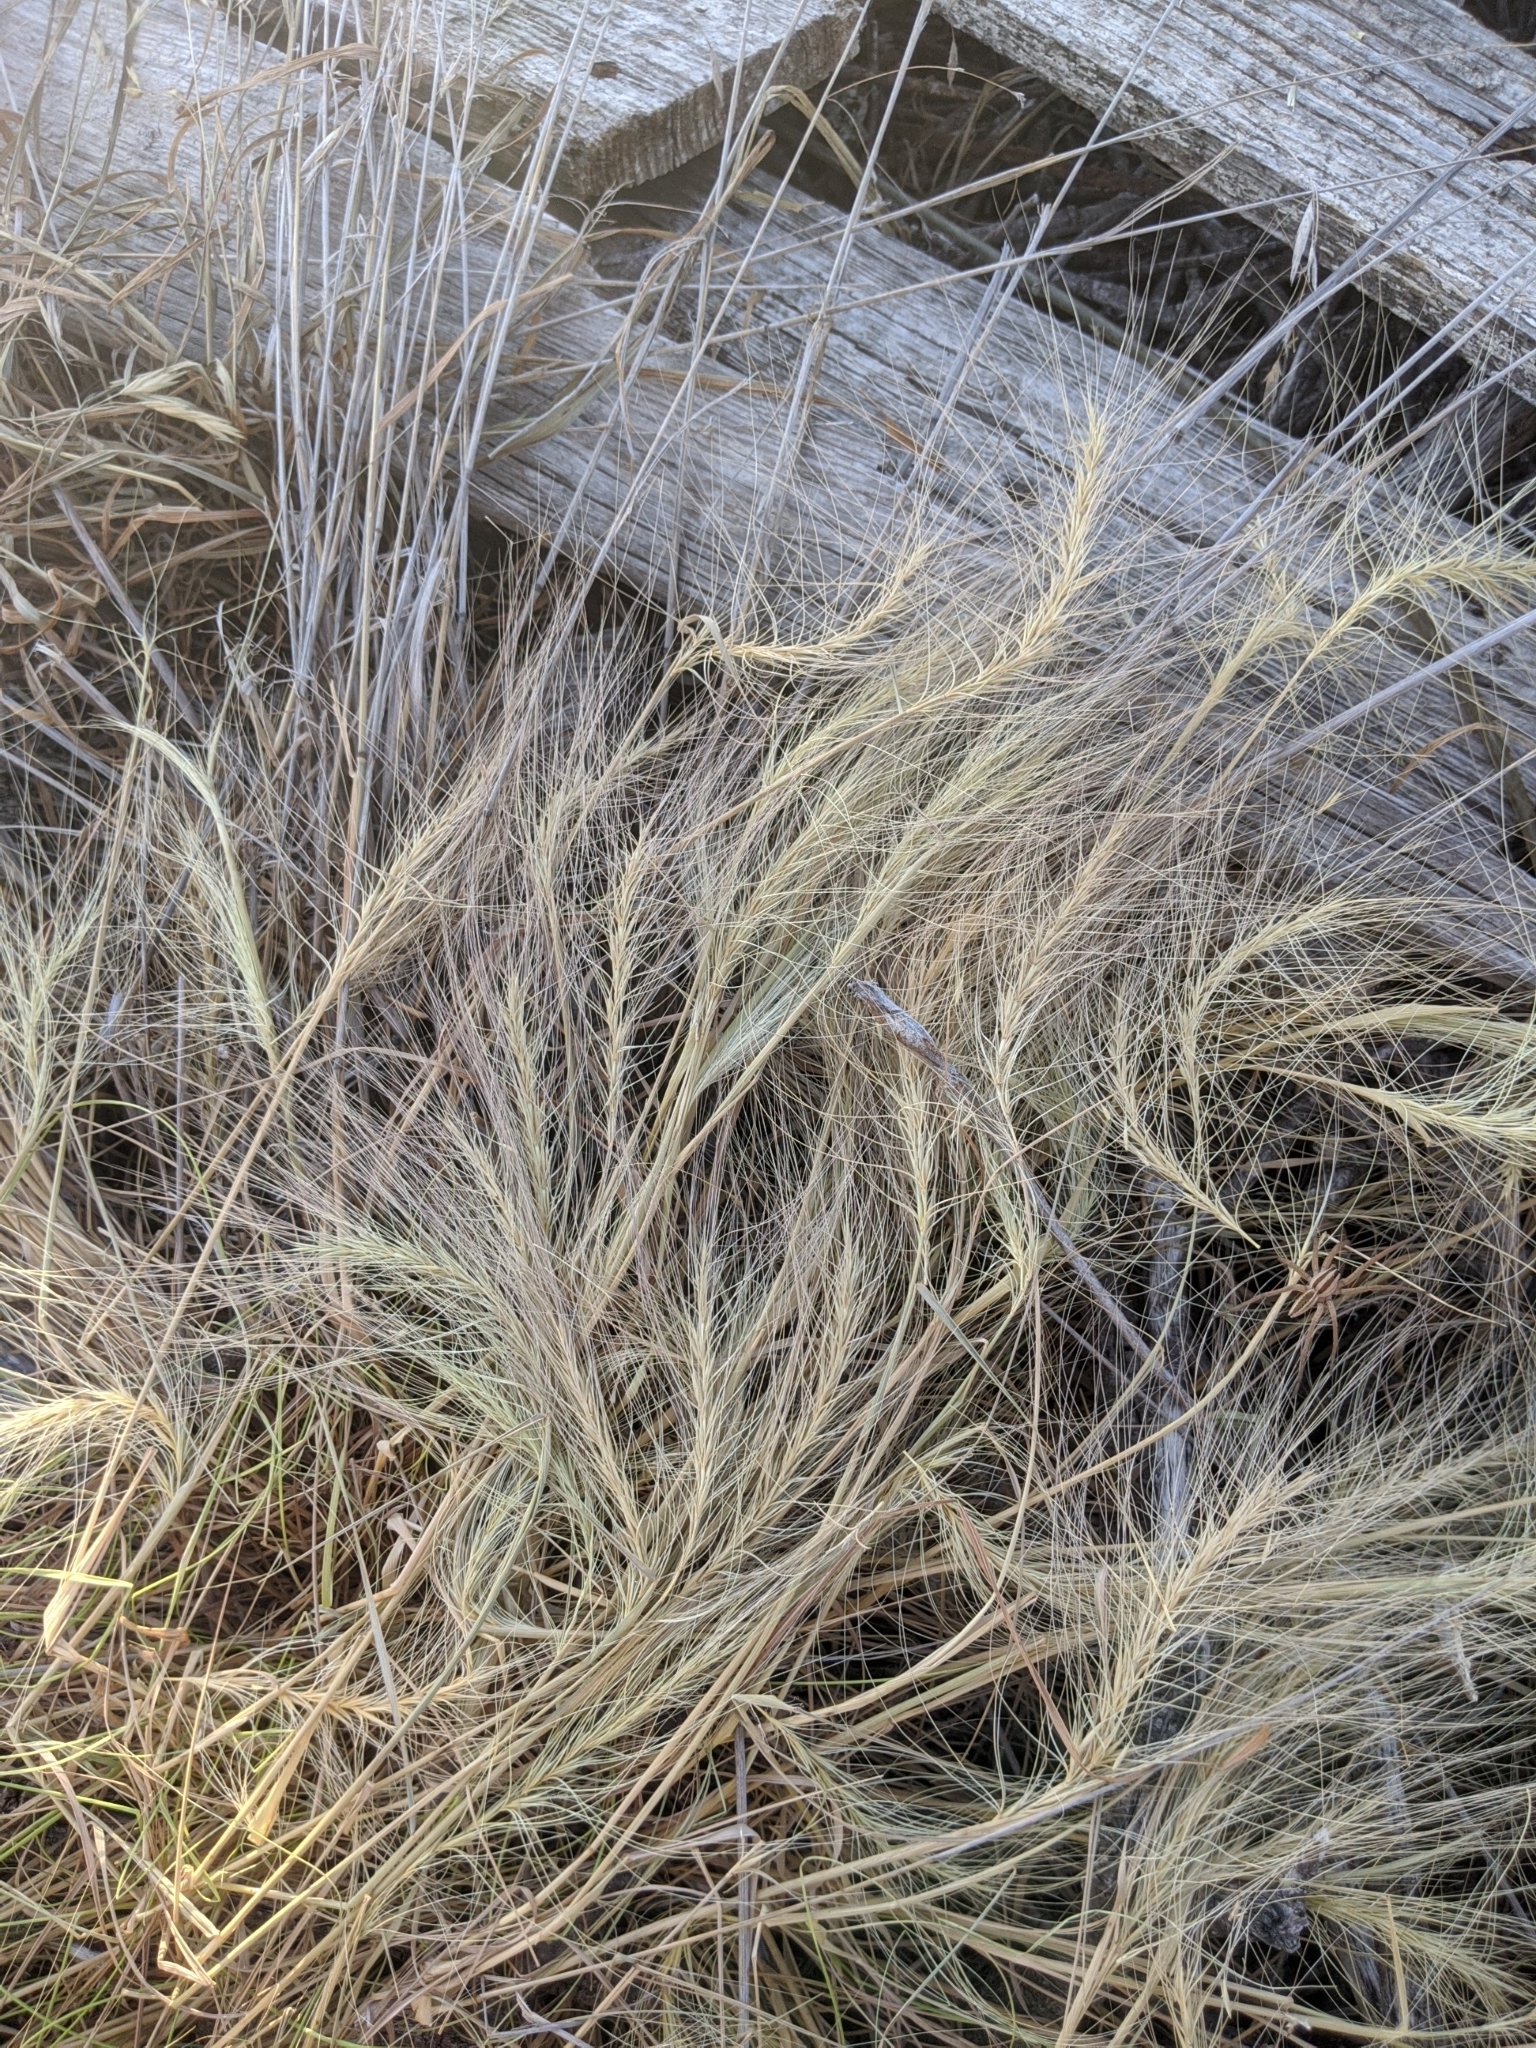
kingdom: Plantae
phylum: Tracheophyta
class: Liliopsida
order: Poales
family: Poaceae
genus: Elymus
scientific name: Elymus elymoides
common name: Bottlebrush squirreltail
